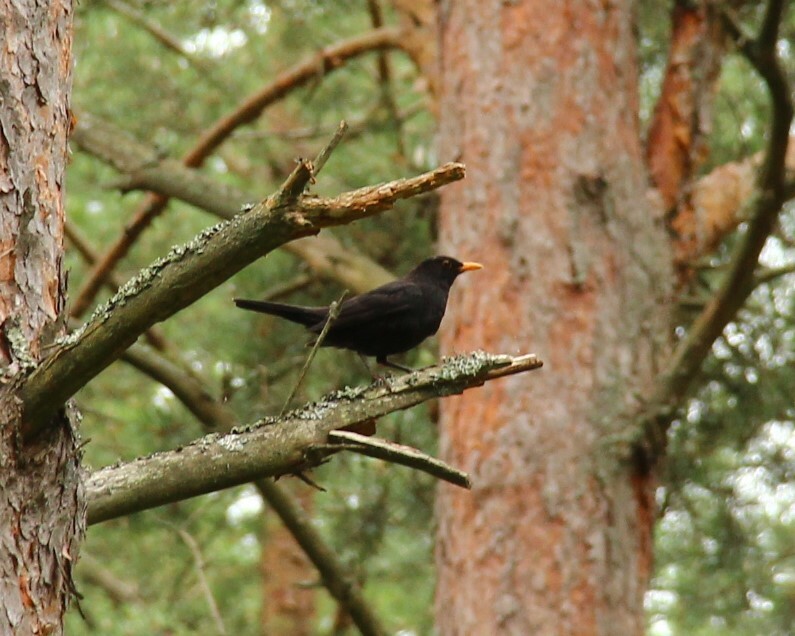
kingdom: Animalia
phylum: Chordata
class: Aves
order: Passeriformes
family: Turdidae
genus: Turdus
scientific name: Turdus merula
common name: Common blackbird
